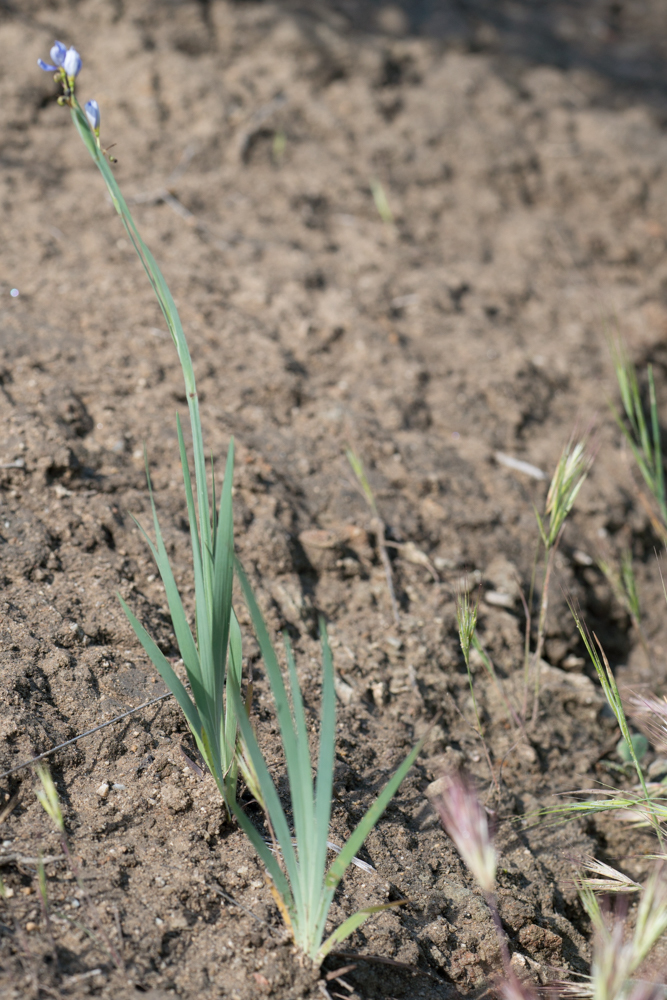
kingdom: Plantae
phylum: Tracheophyta
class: Liliopsida
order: Asparagales
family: Iridaceae
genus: Sisyrinchium
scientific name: Sisyrinchium bellum
